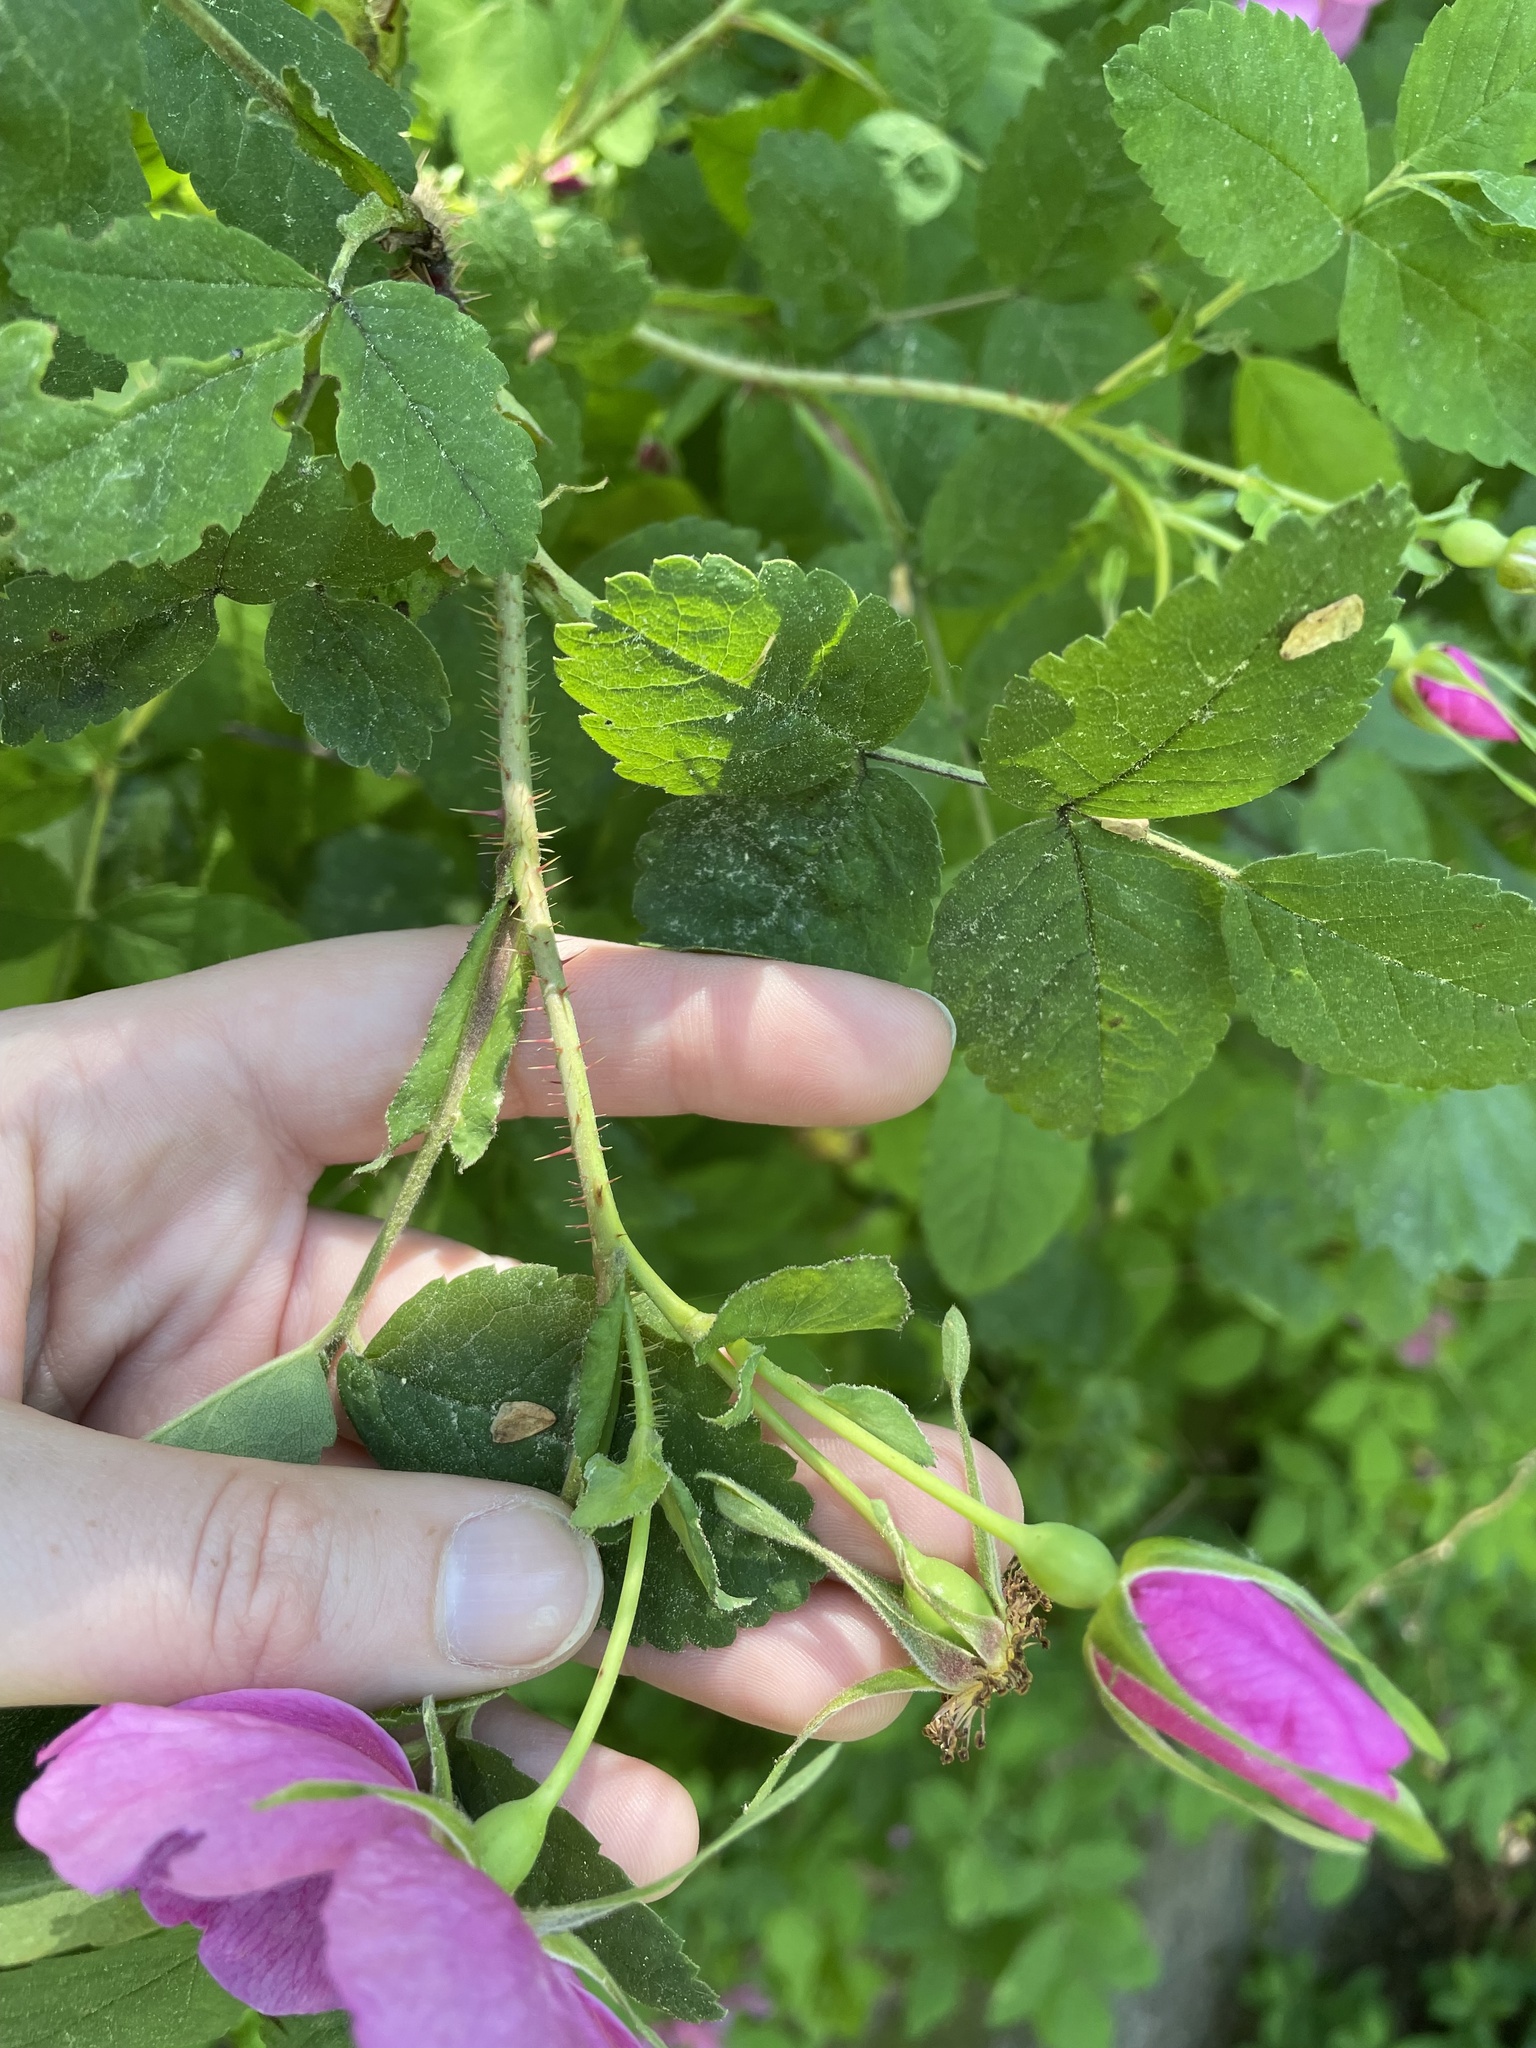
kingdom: Plantae
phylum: Tracheophyta
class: Magnoliopsida
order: Rosales
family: Rosaceae
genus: Rosa
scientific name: Rosa acicularis
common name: Prickly rose
